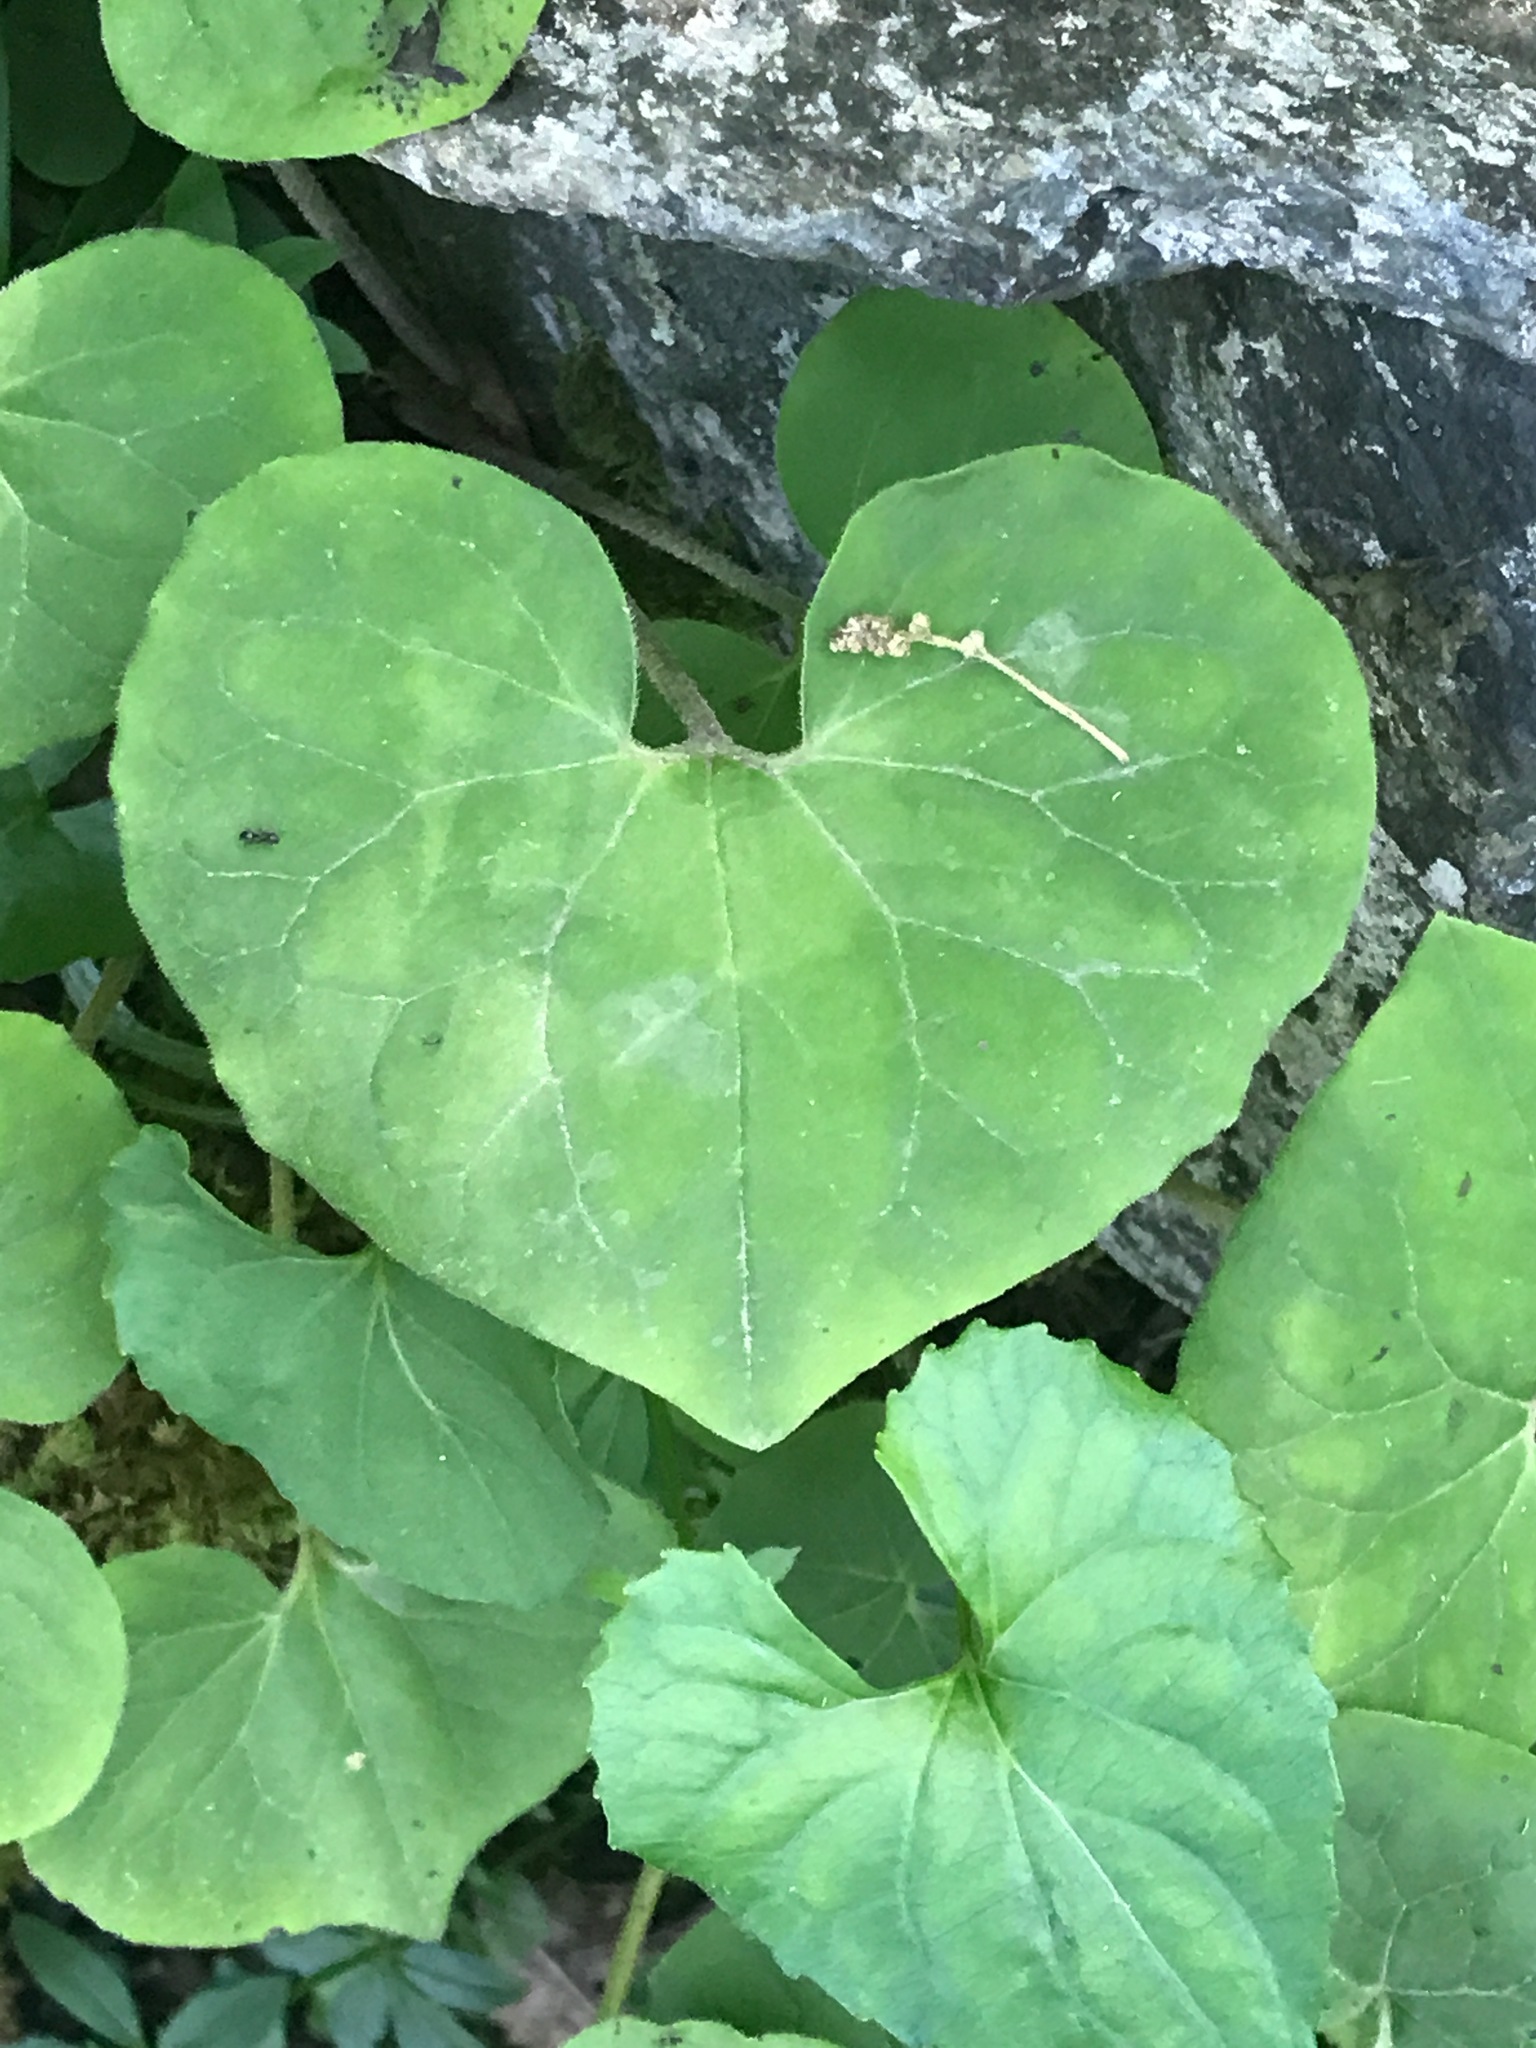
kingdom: Plantae
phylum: Tracheophyta
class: Magnoliopsida
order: Piperales
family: Aristolochiaceae
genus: Asarum
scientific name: Asarum canadense
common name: Wild ginger
